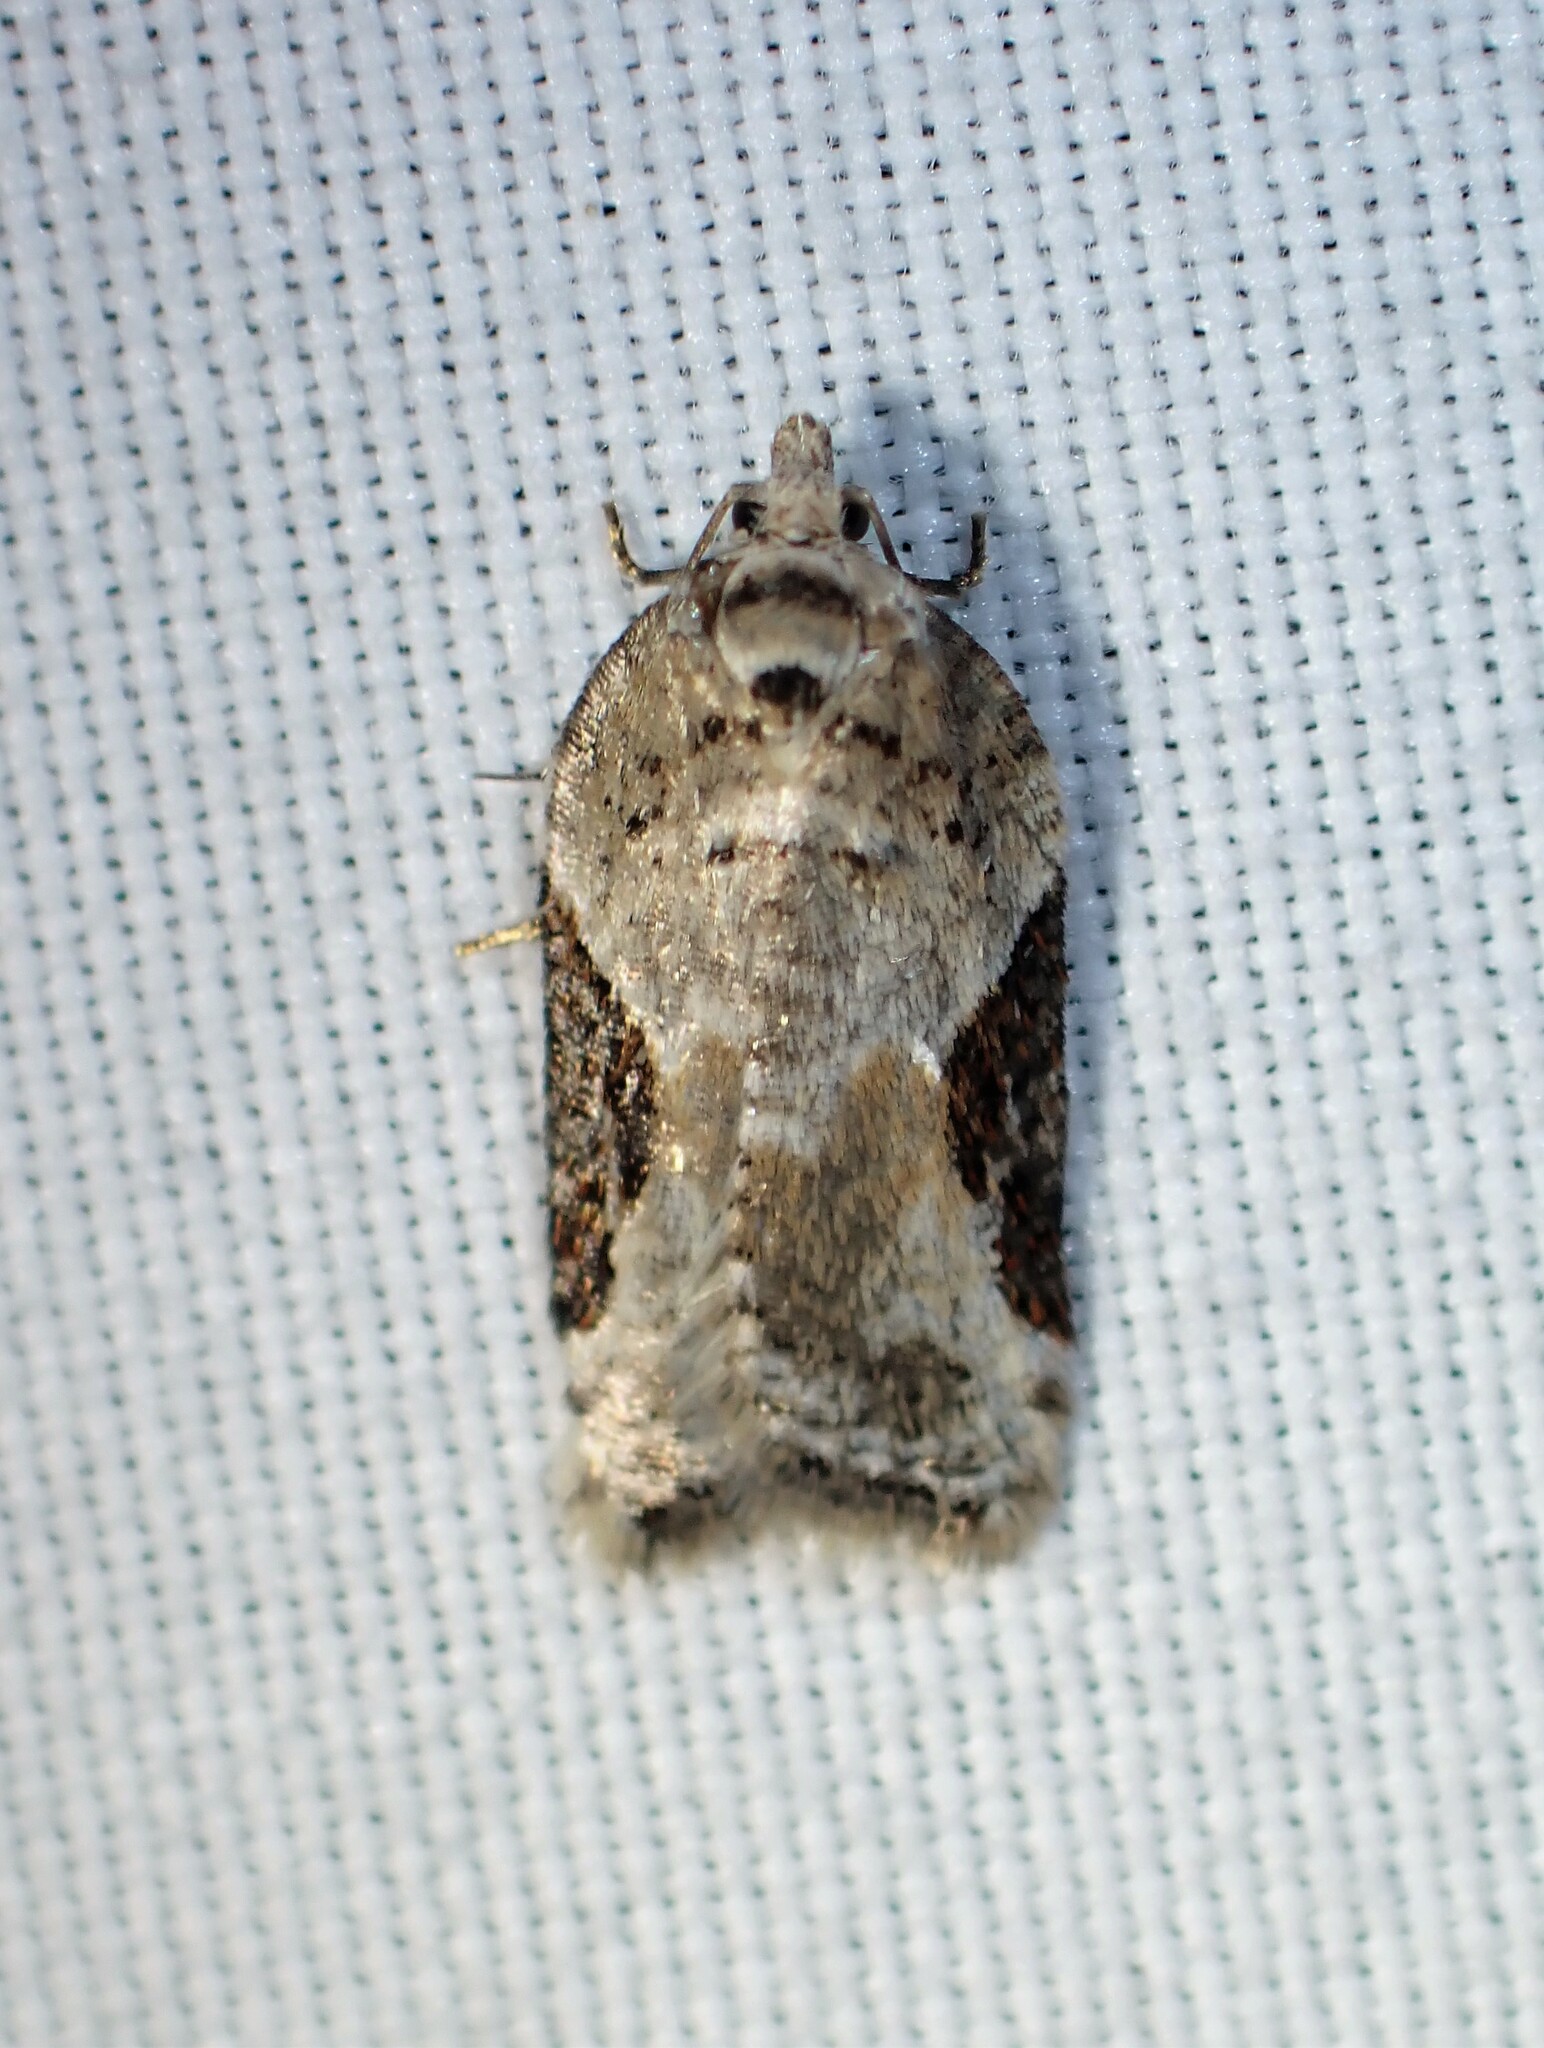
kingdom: Animalia
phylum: Arthropoda
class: Insecta
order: Lepidoptera
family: Tortricidae
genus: Acleris
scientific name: Acleris forbesana
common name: Forbes' acleris moth
